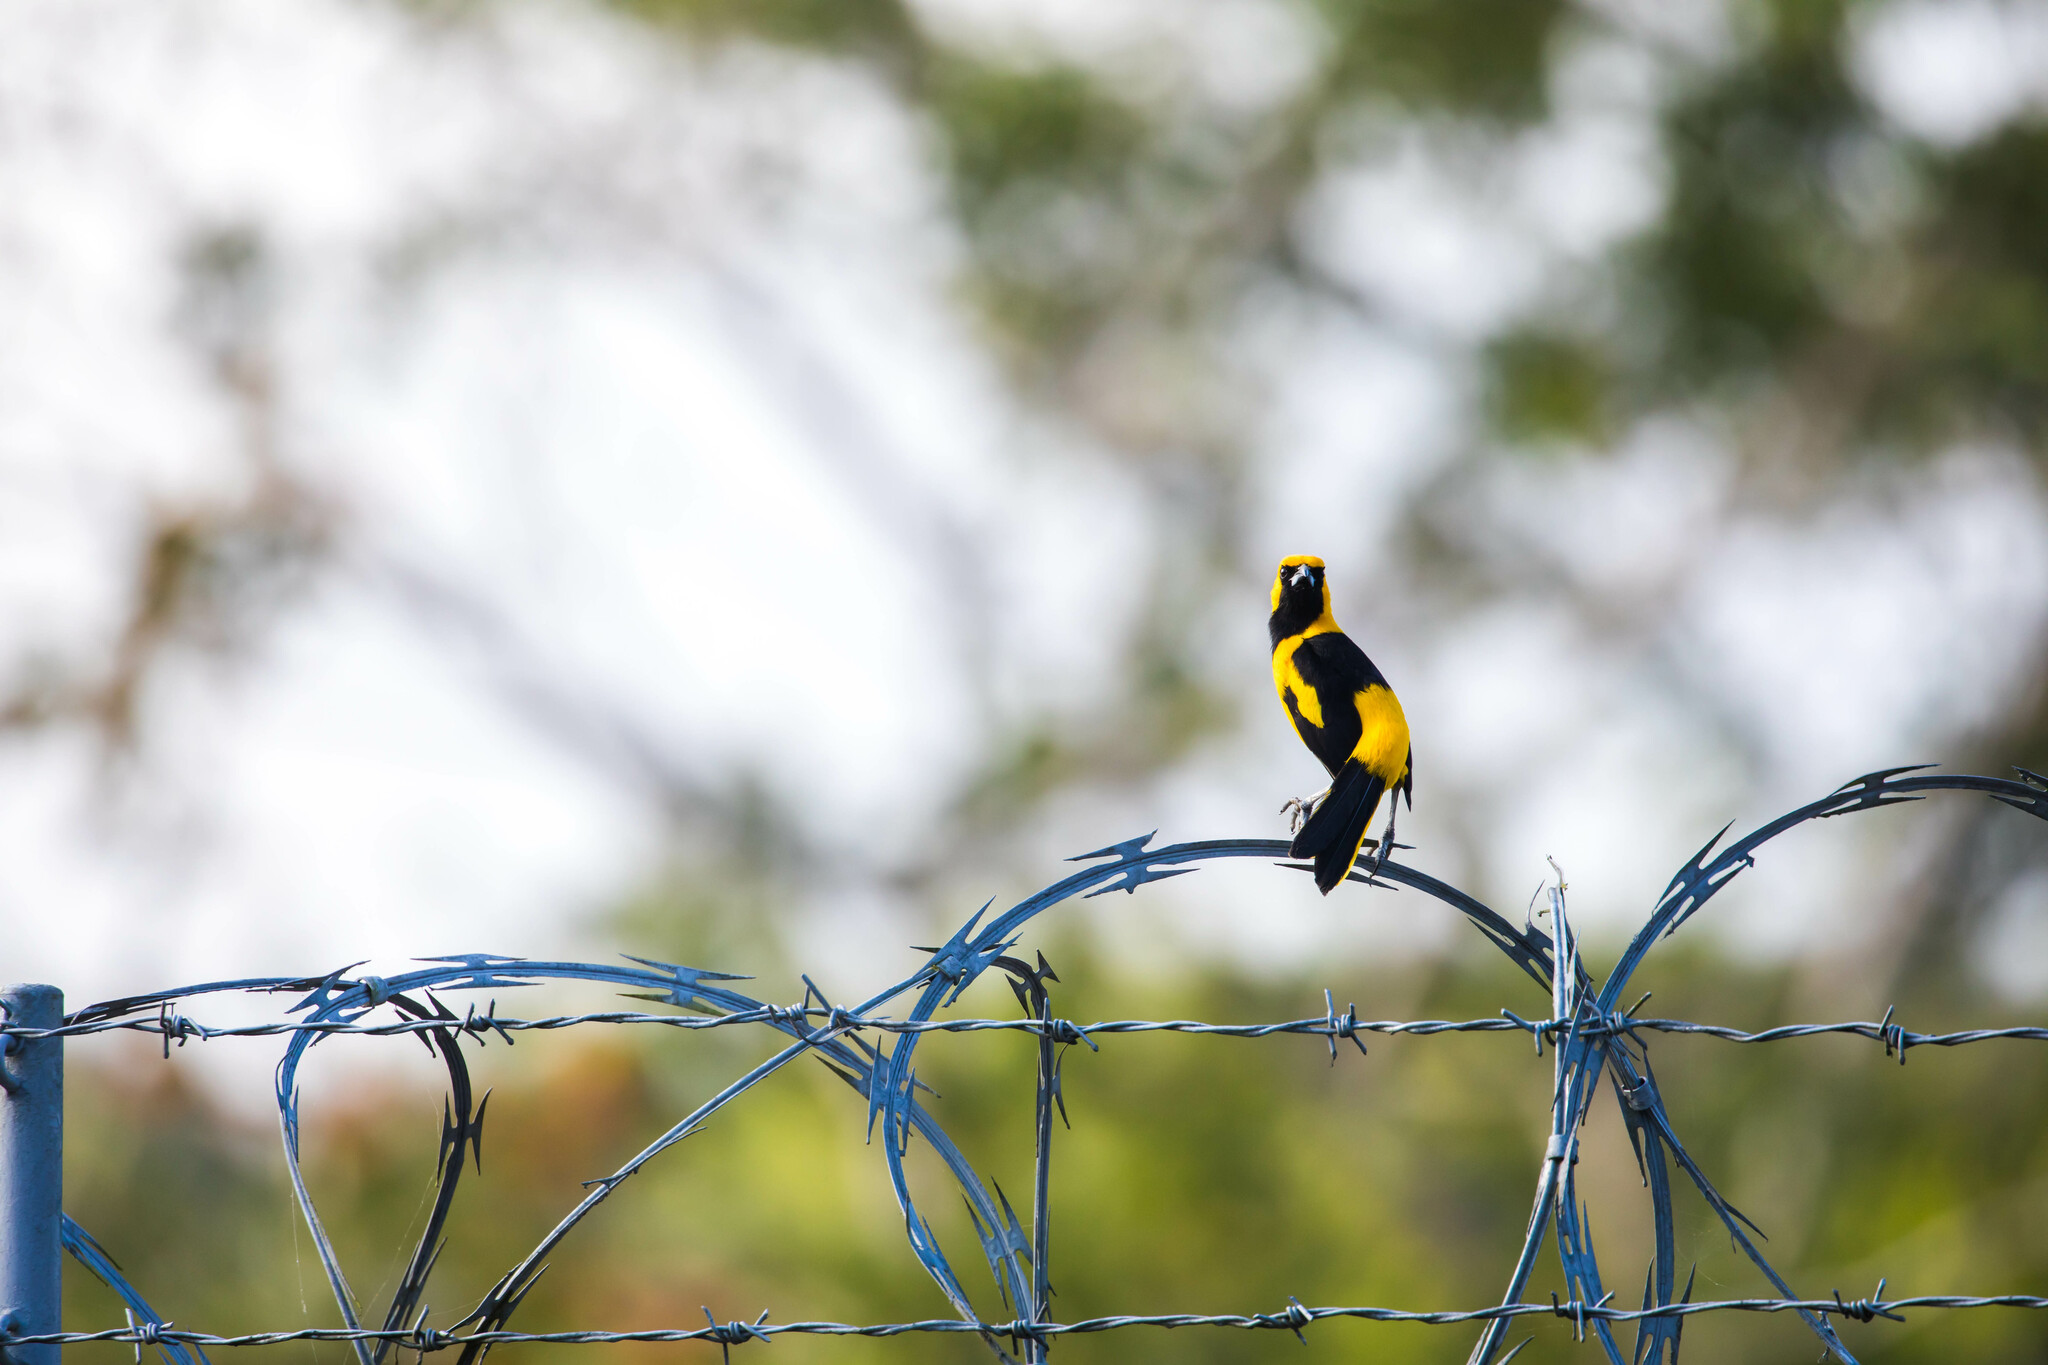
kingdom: Animalia
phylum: Chordata
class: Aves
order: Passeriformes
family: Icteridae
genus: Icterus
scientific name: Icterus mesomelas
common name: Yellow-tailed oriole
